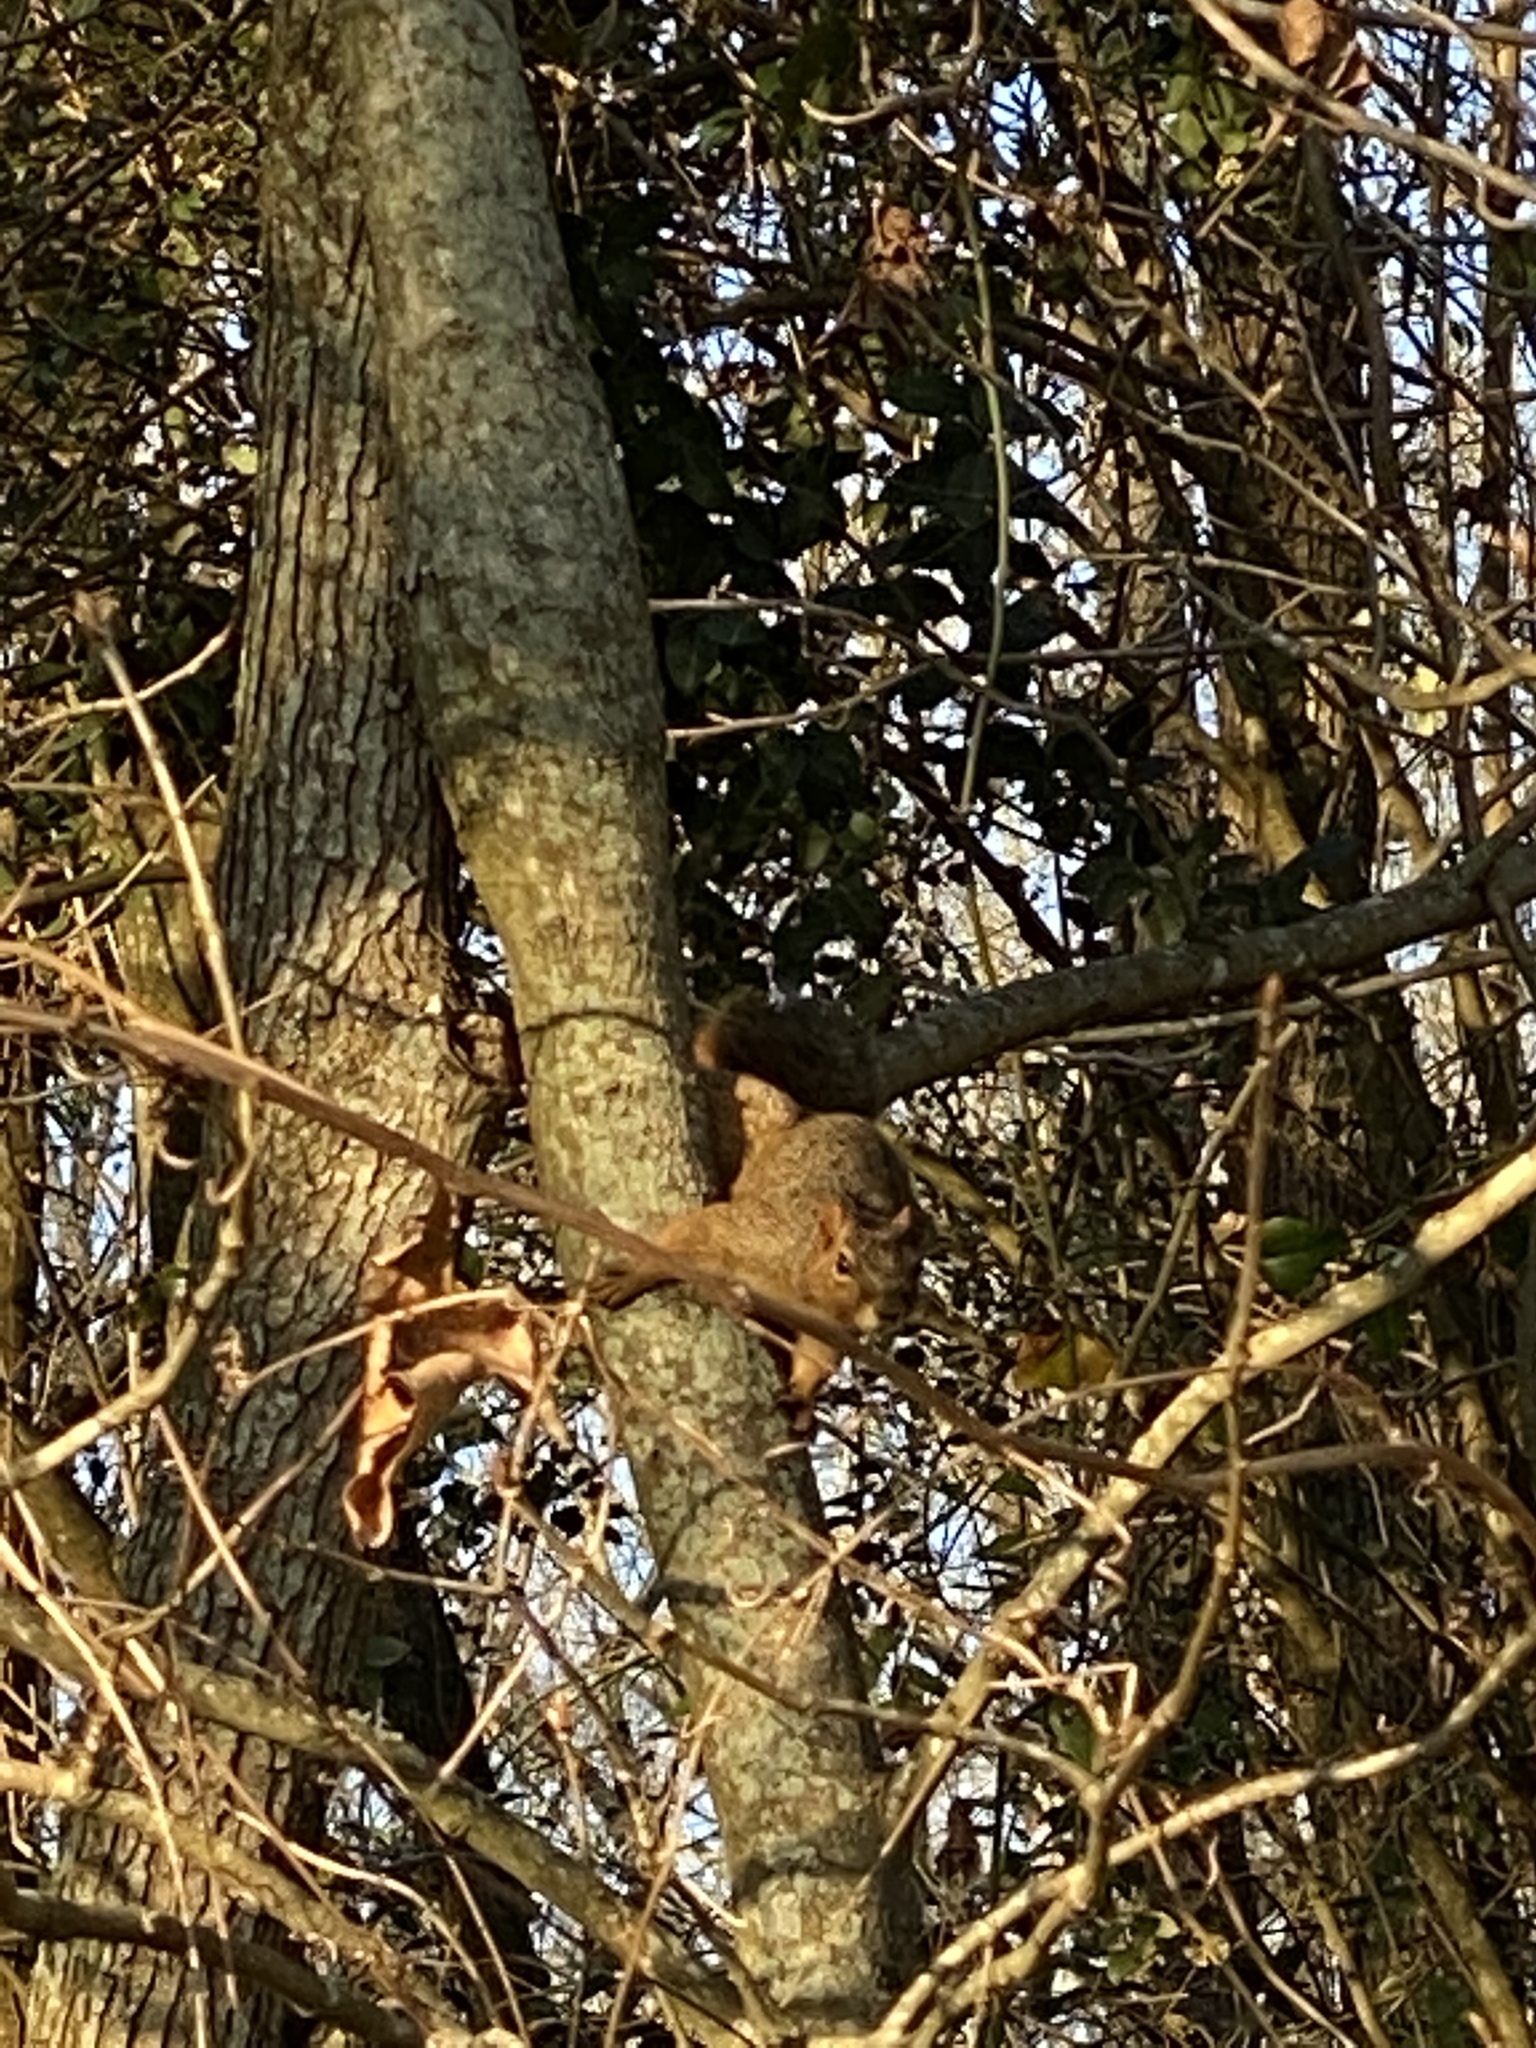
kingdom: Animalia
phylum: Chordata
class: Mammalia
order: Rodentia
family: Sciuridae
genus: Sciurus
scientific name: Sciurus niger
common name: Fox squirrel
